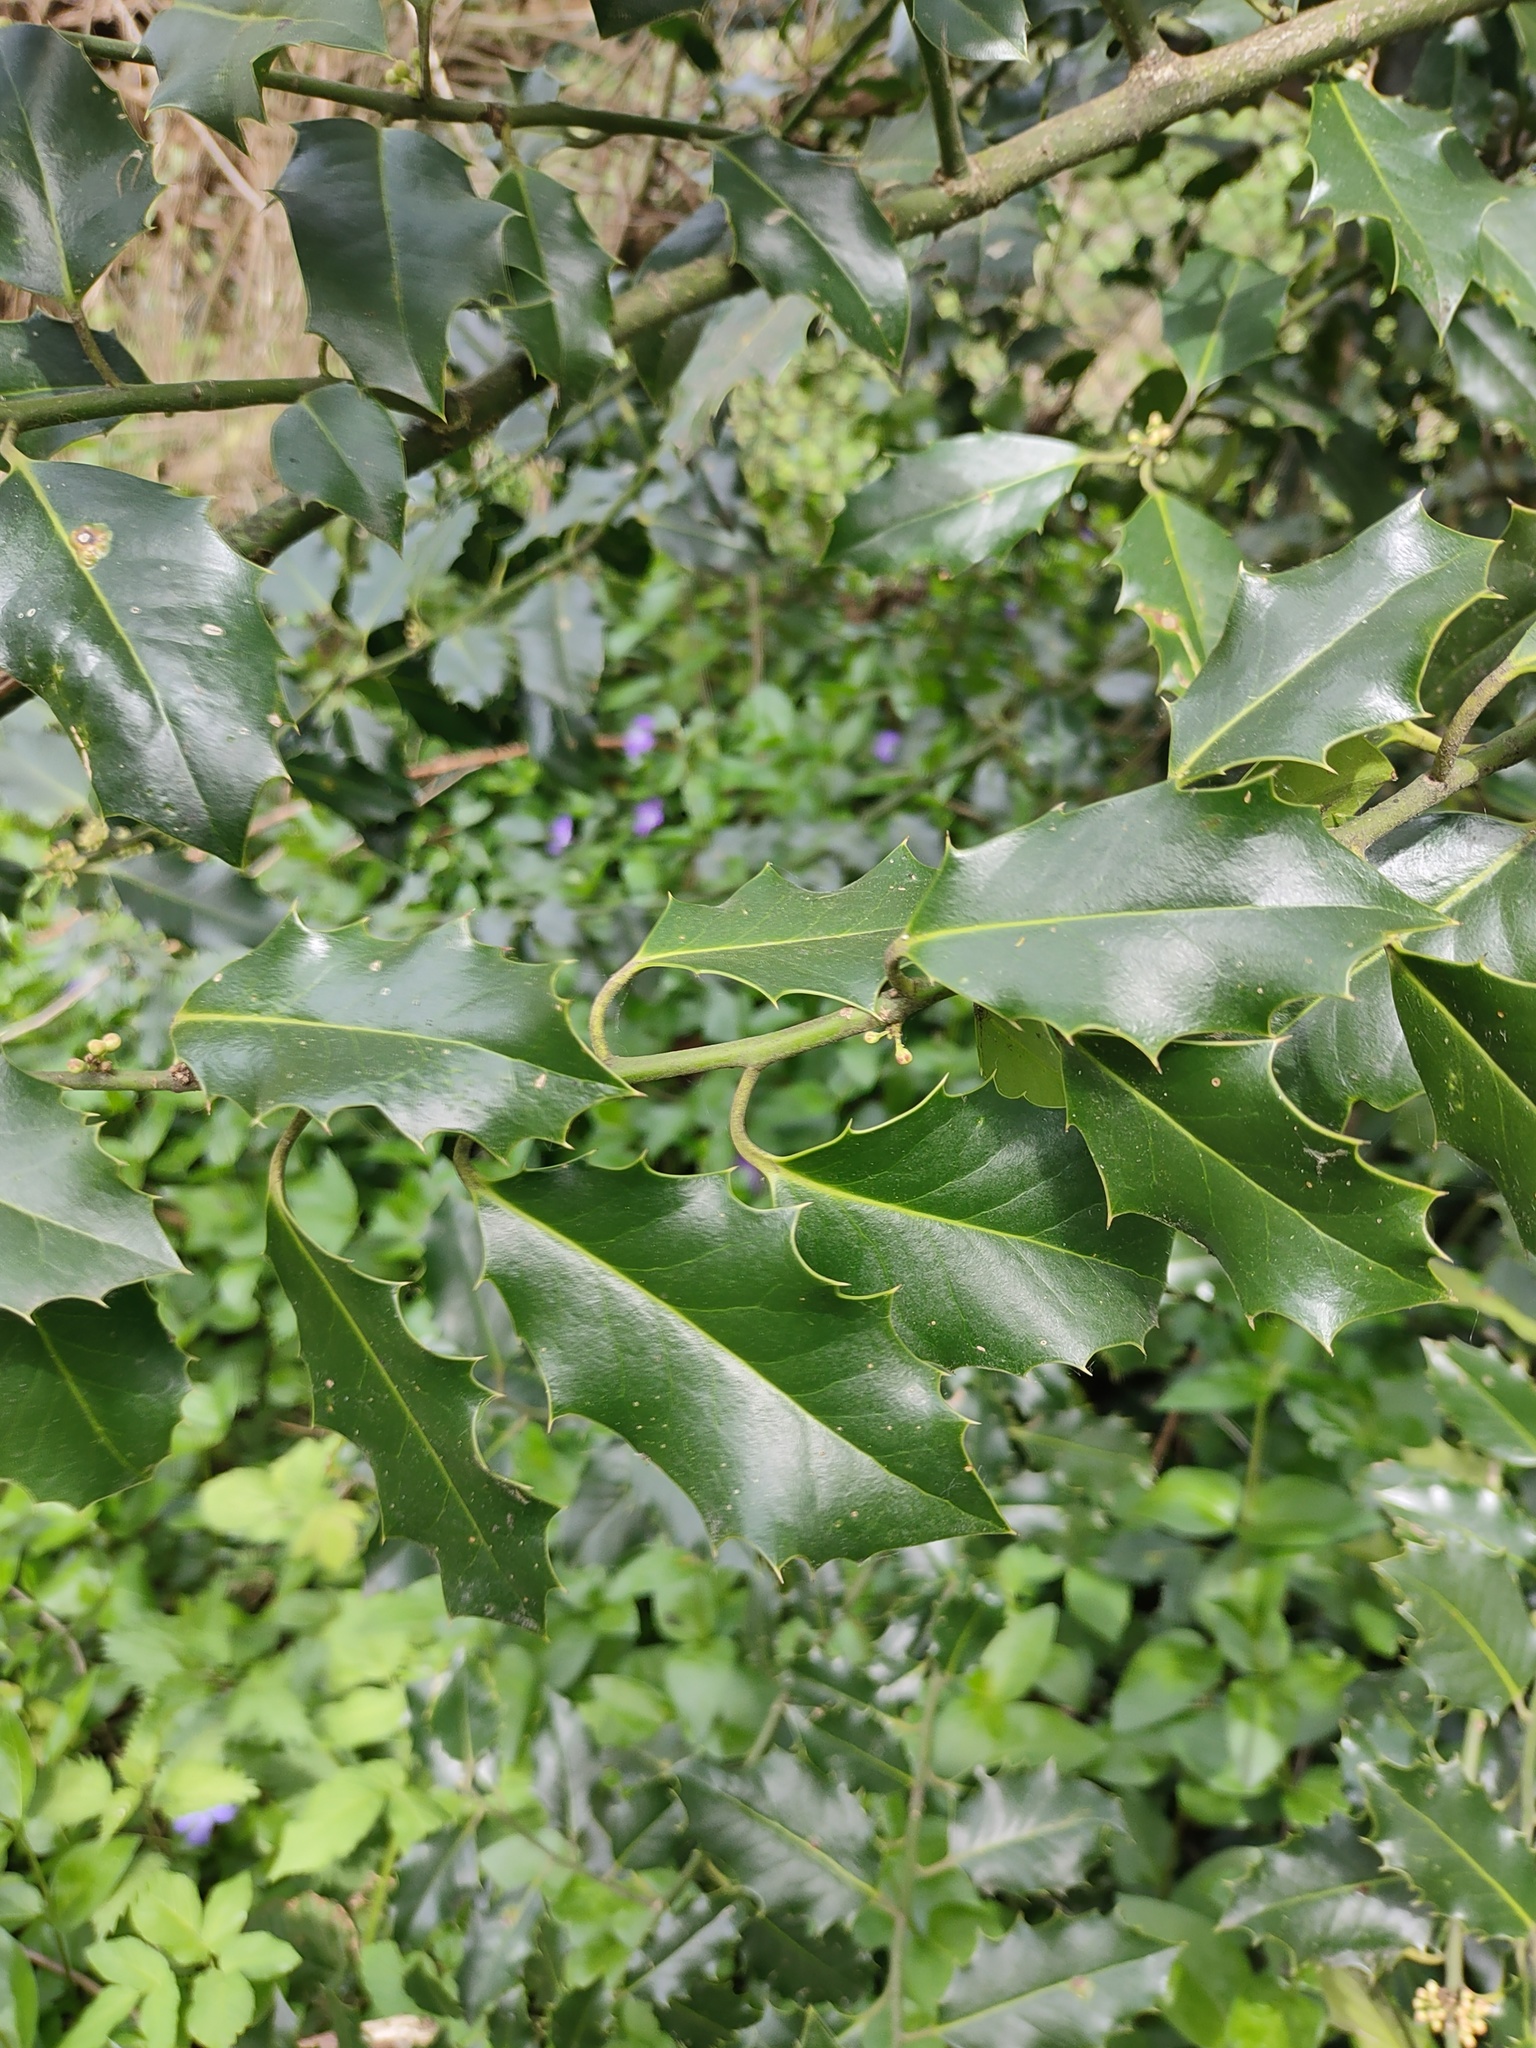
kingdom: Plantae
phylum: Tracheophyta
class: Magnoliopsida
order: Aquifoliales
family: Aquifoliaceae
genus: Ilex
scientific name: Ilex aquifolium
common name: English holly
